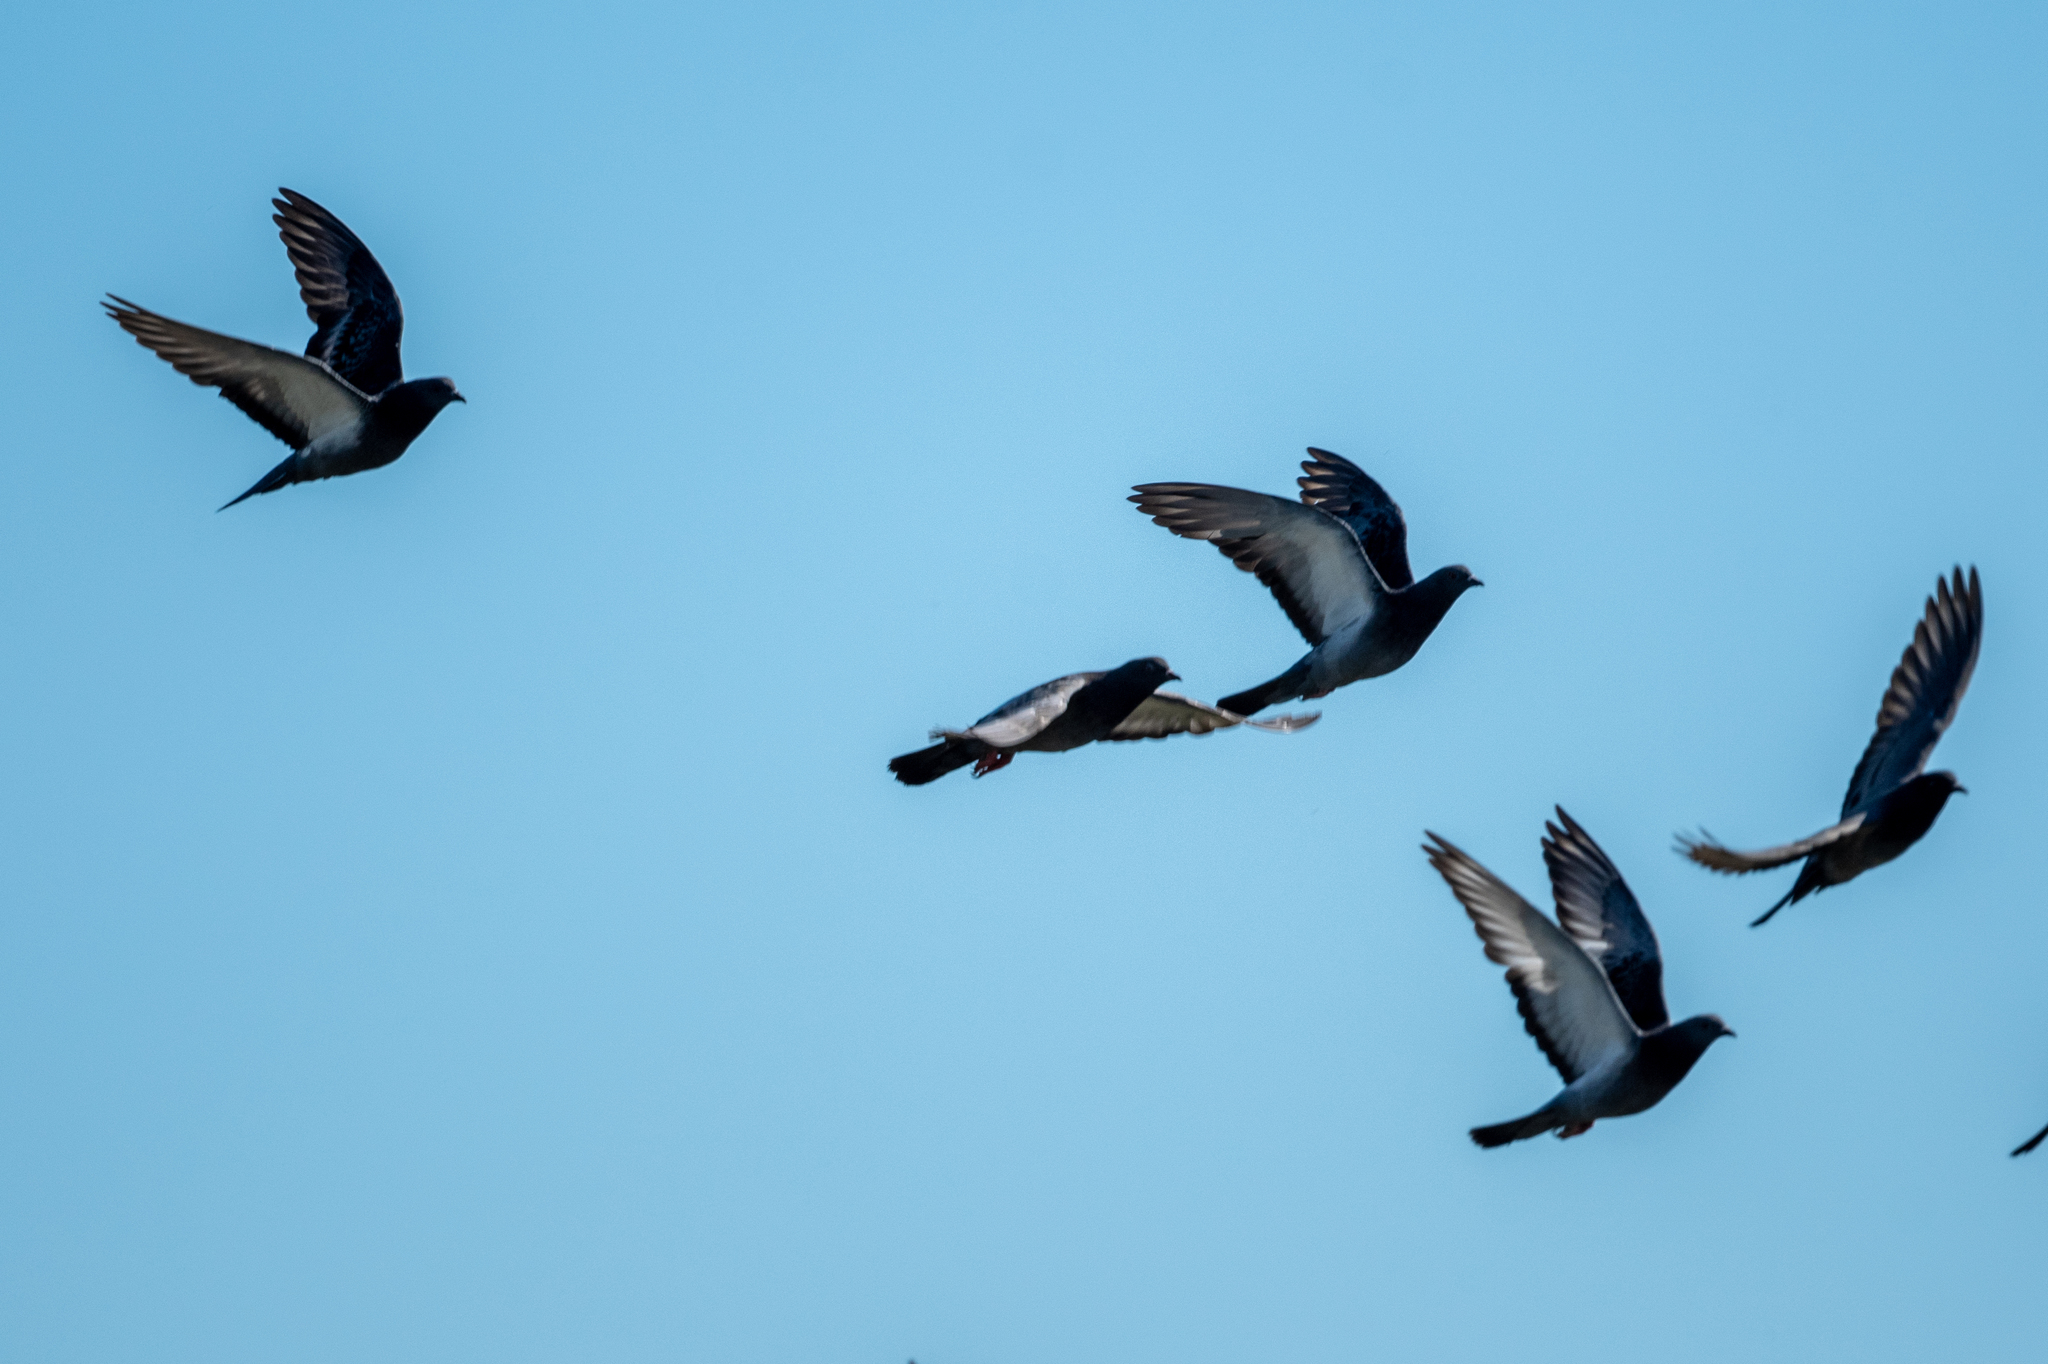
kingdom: Animalia
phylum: Chordata
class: Aves
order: Columbiformes
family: Columbidae
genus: Columba
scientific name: Columba livia
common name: Rock pigeon
